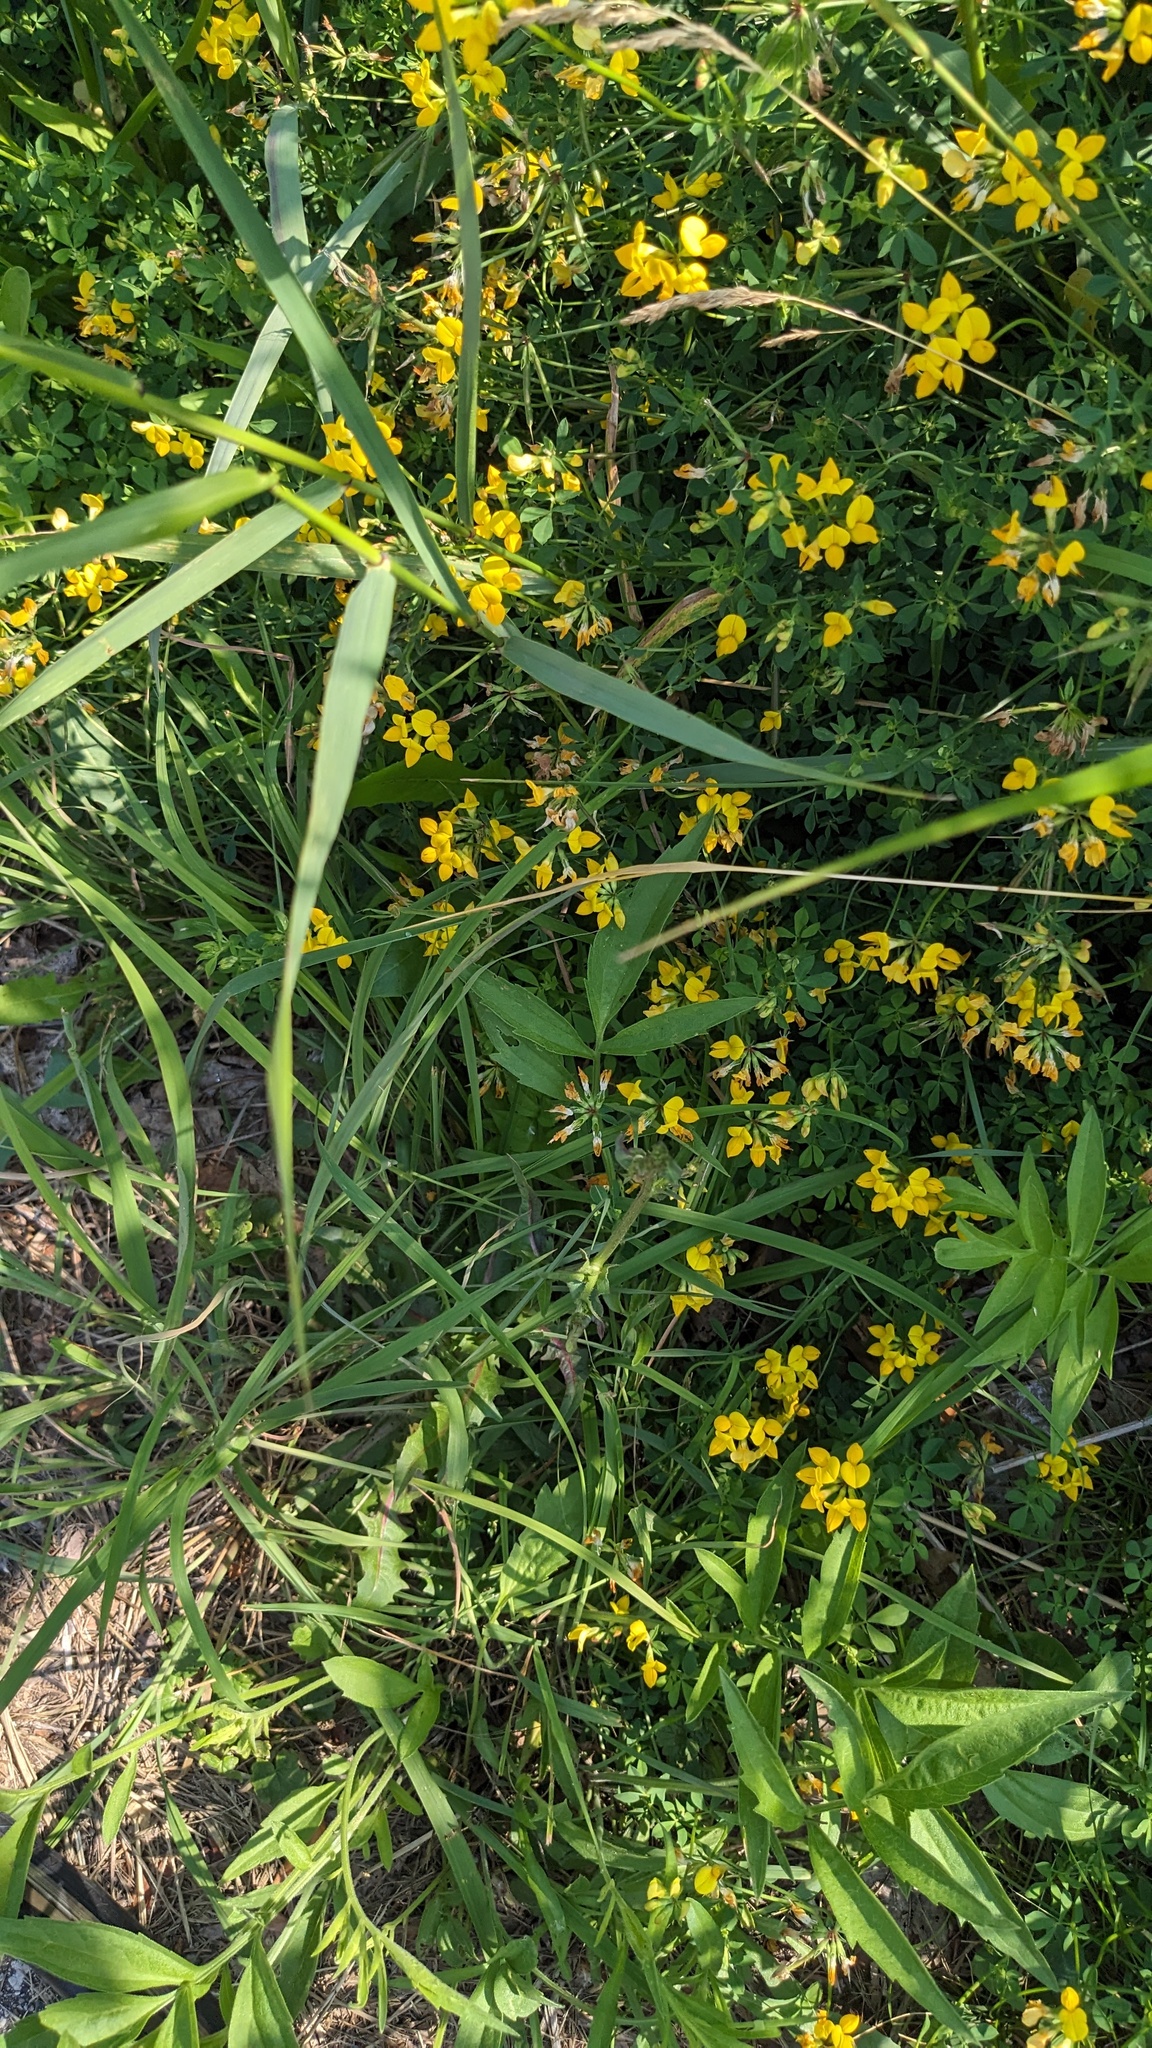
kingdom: Plantae
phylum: Tracheophyta
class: Magnoliopsida
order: Fabales
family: Fabaceae
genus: Lotus
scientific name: Lotus corniculatus
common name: Common bird's-foot-trefoil
